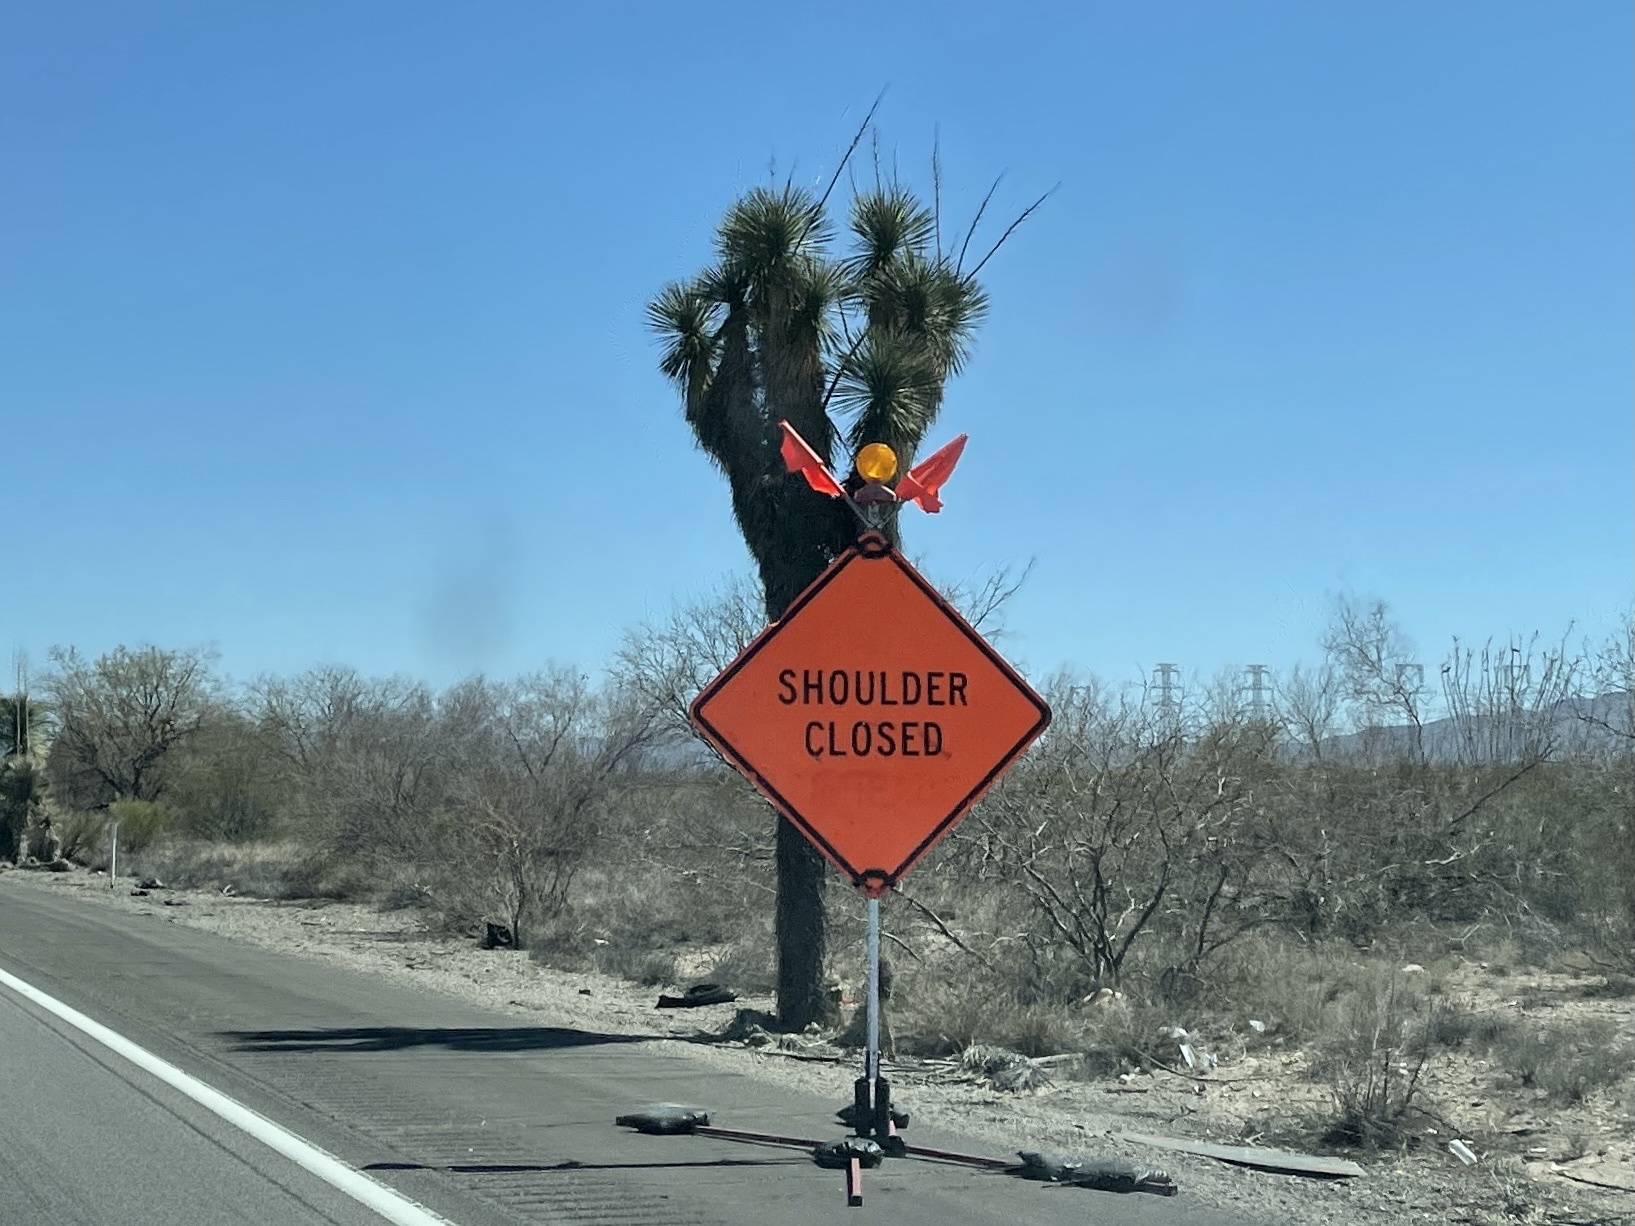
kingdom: Plantae
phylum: Tracheophyta
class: Liliopsida
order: Asparagales
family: Asparagaceae
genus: Yucca
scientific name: Yucca elata
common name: Palmella
